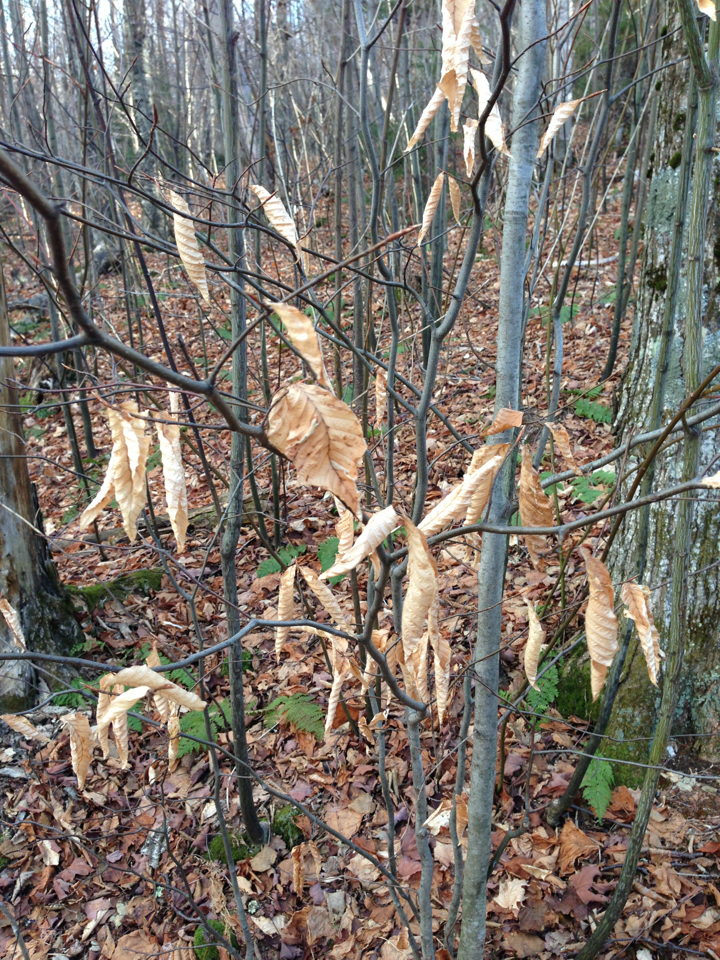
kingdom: Plantae
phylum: Tracheophyta
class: Magnoliopsida
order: Fagales
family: Fagaceae
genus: Fagus
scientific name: Fagus grandifolia
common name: American beech
